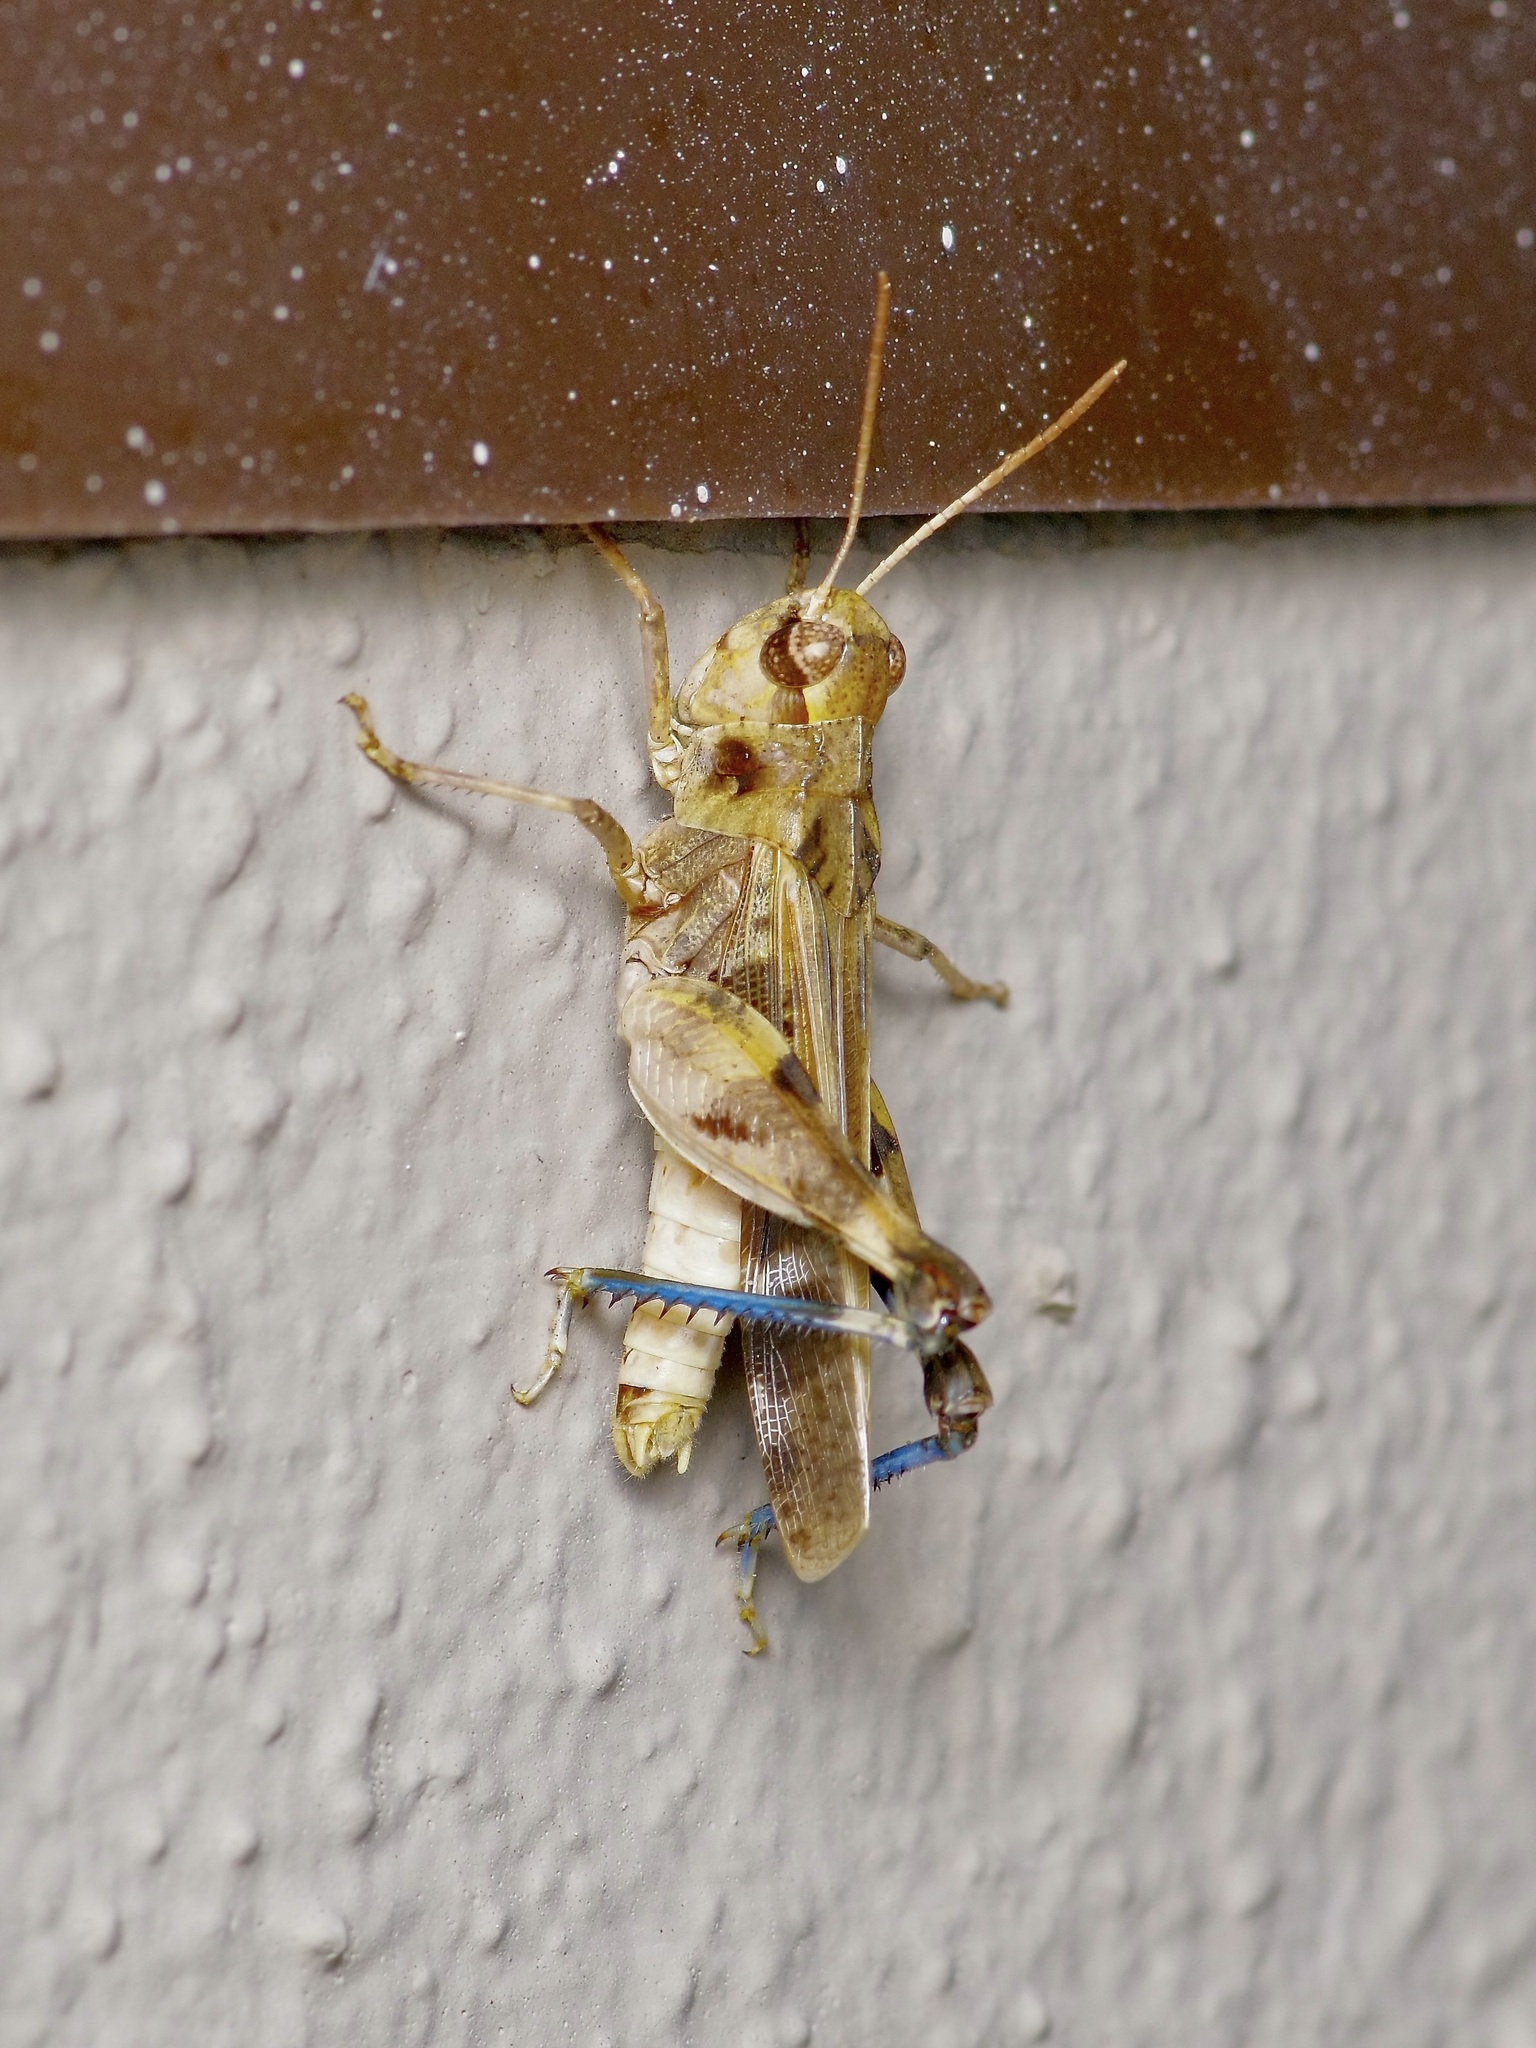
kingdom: Animalia
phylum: Arthropoda
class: Insecta
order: Orthoptera
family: Acrididae
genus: Encoptolophus
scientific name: Encoptolophus costalis
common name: Dusky grasshopper
